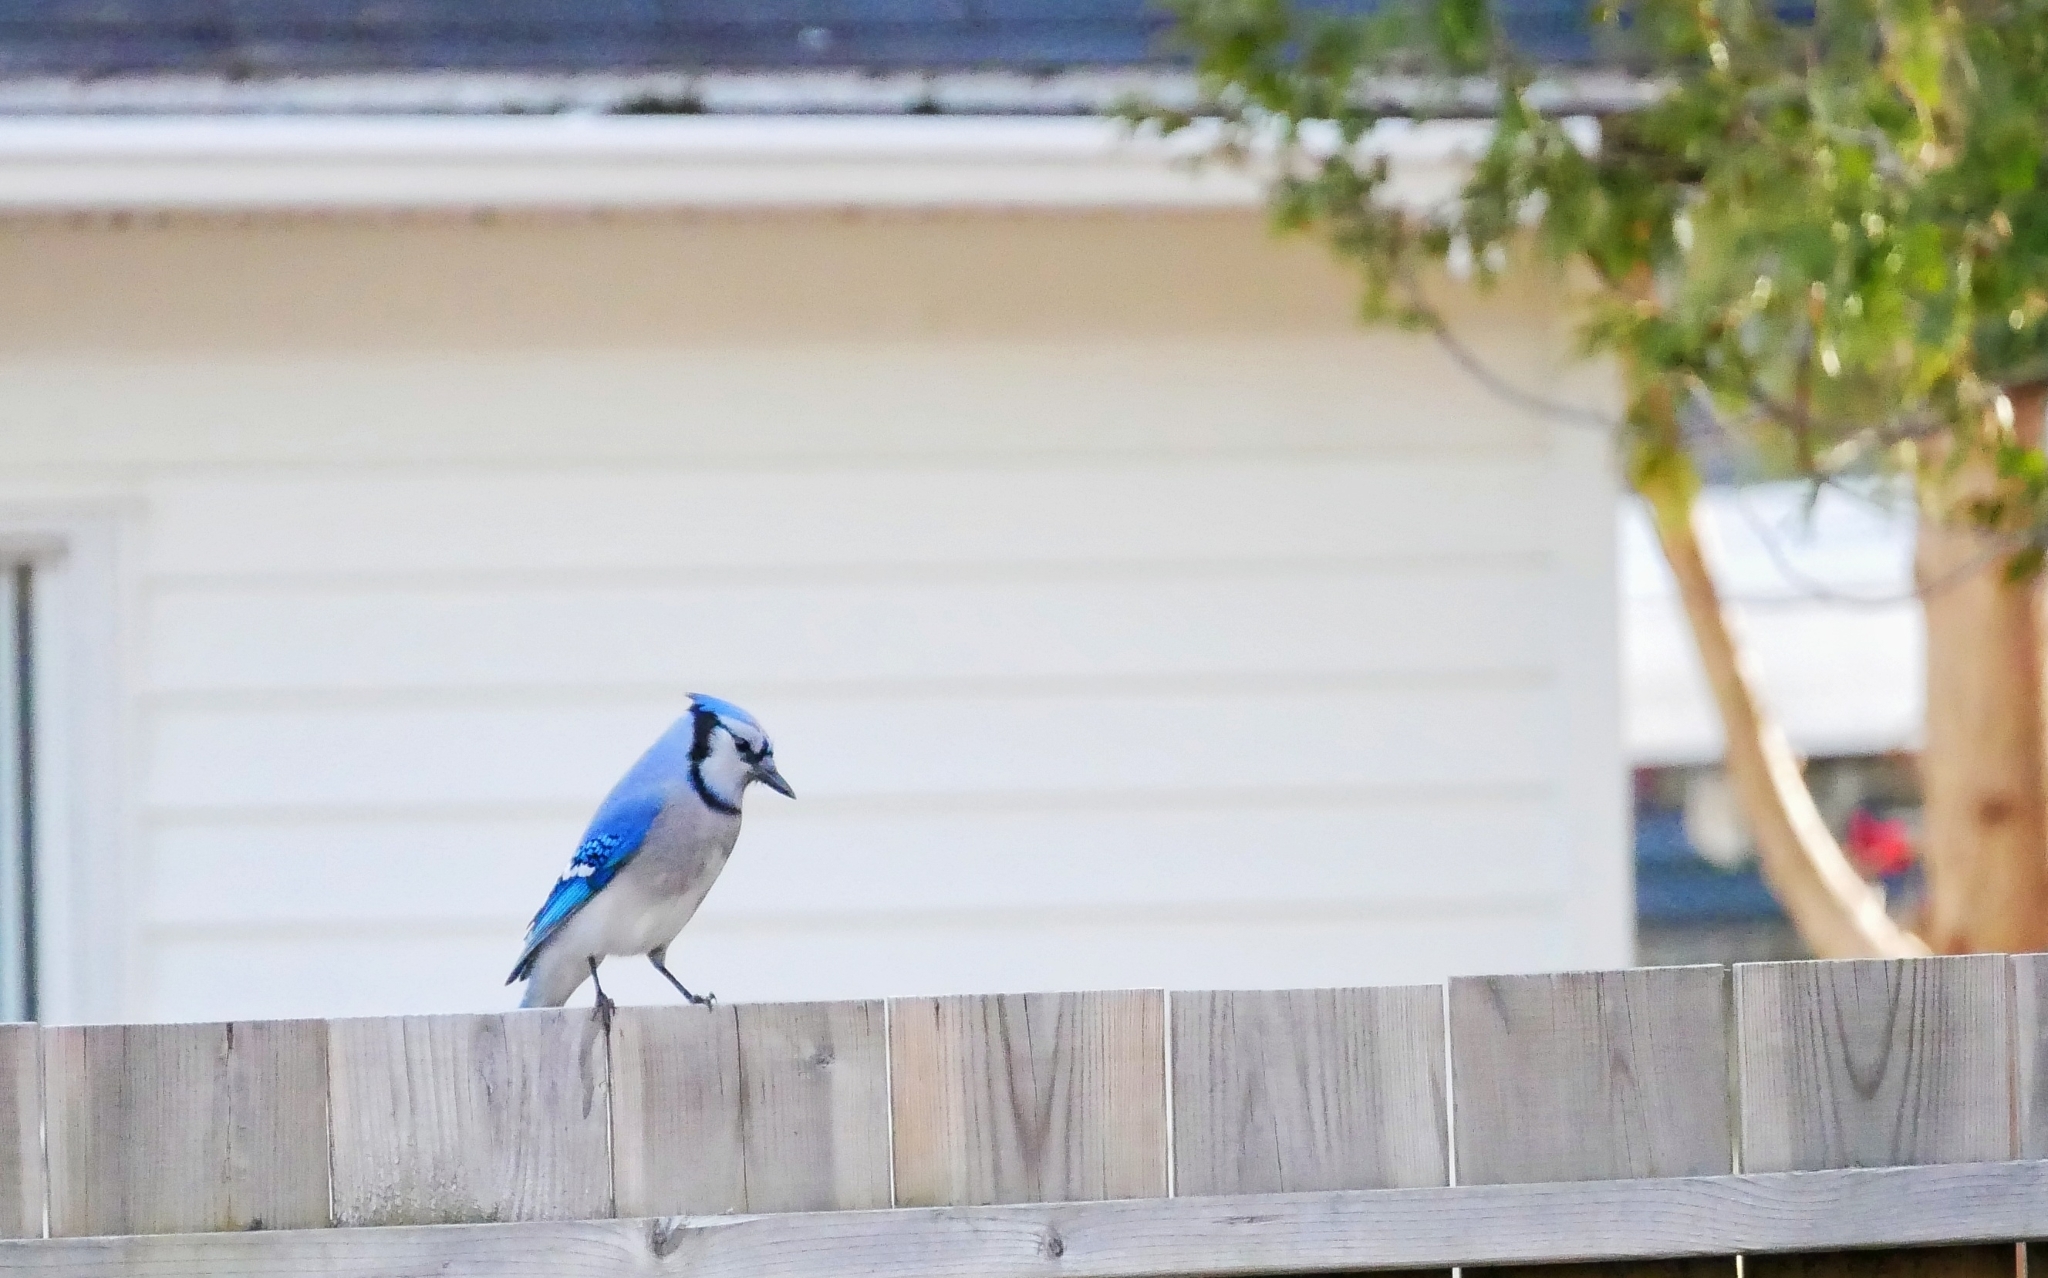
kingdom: Animalia
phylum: Chordata
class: Aves
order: Passeriformes
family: Corvidae
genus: Cyanocitta
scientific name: Cyanocitta cristata
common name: Blue jay
